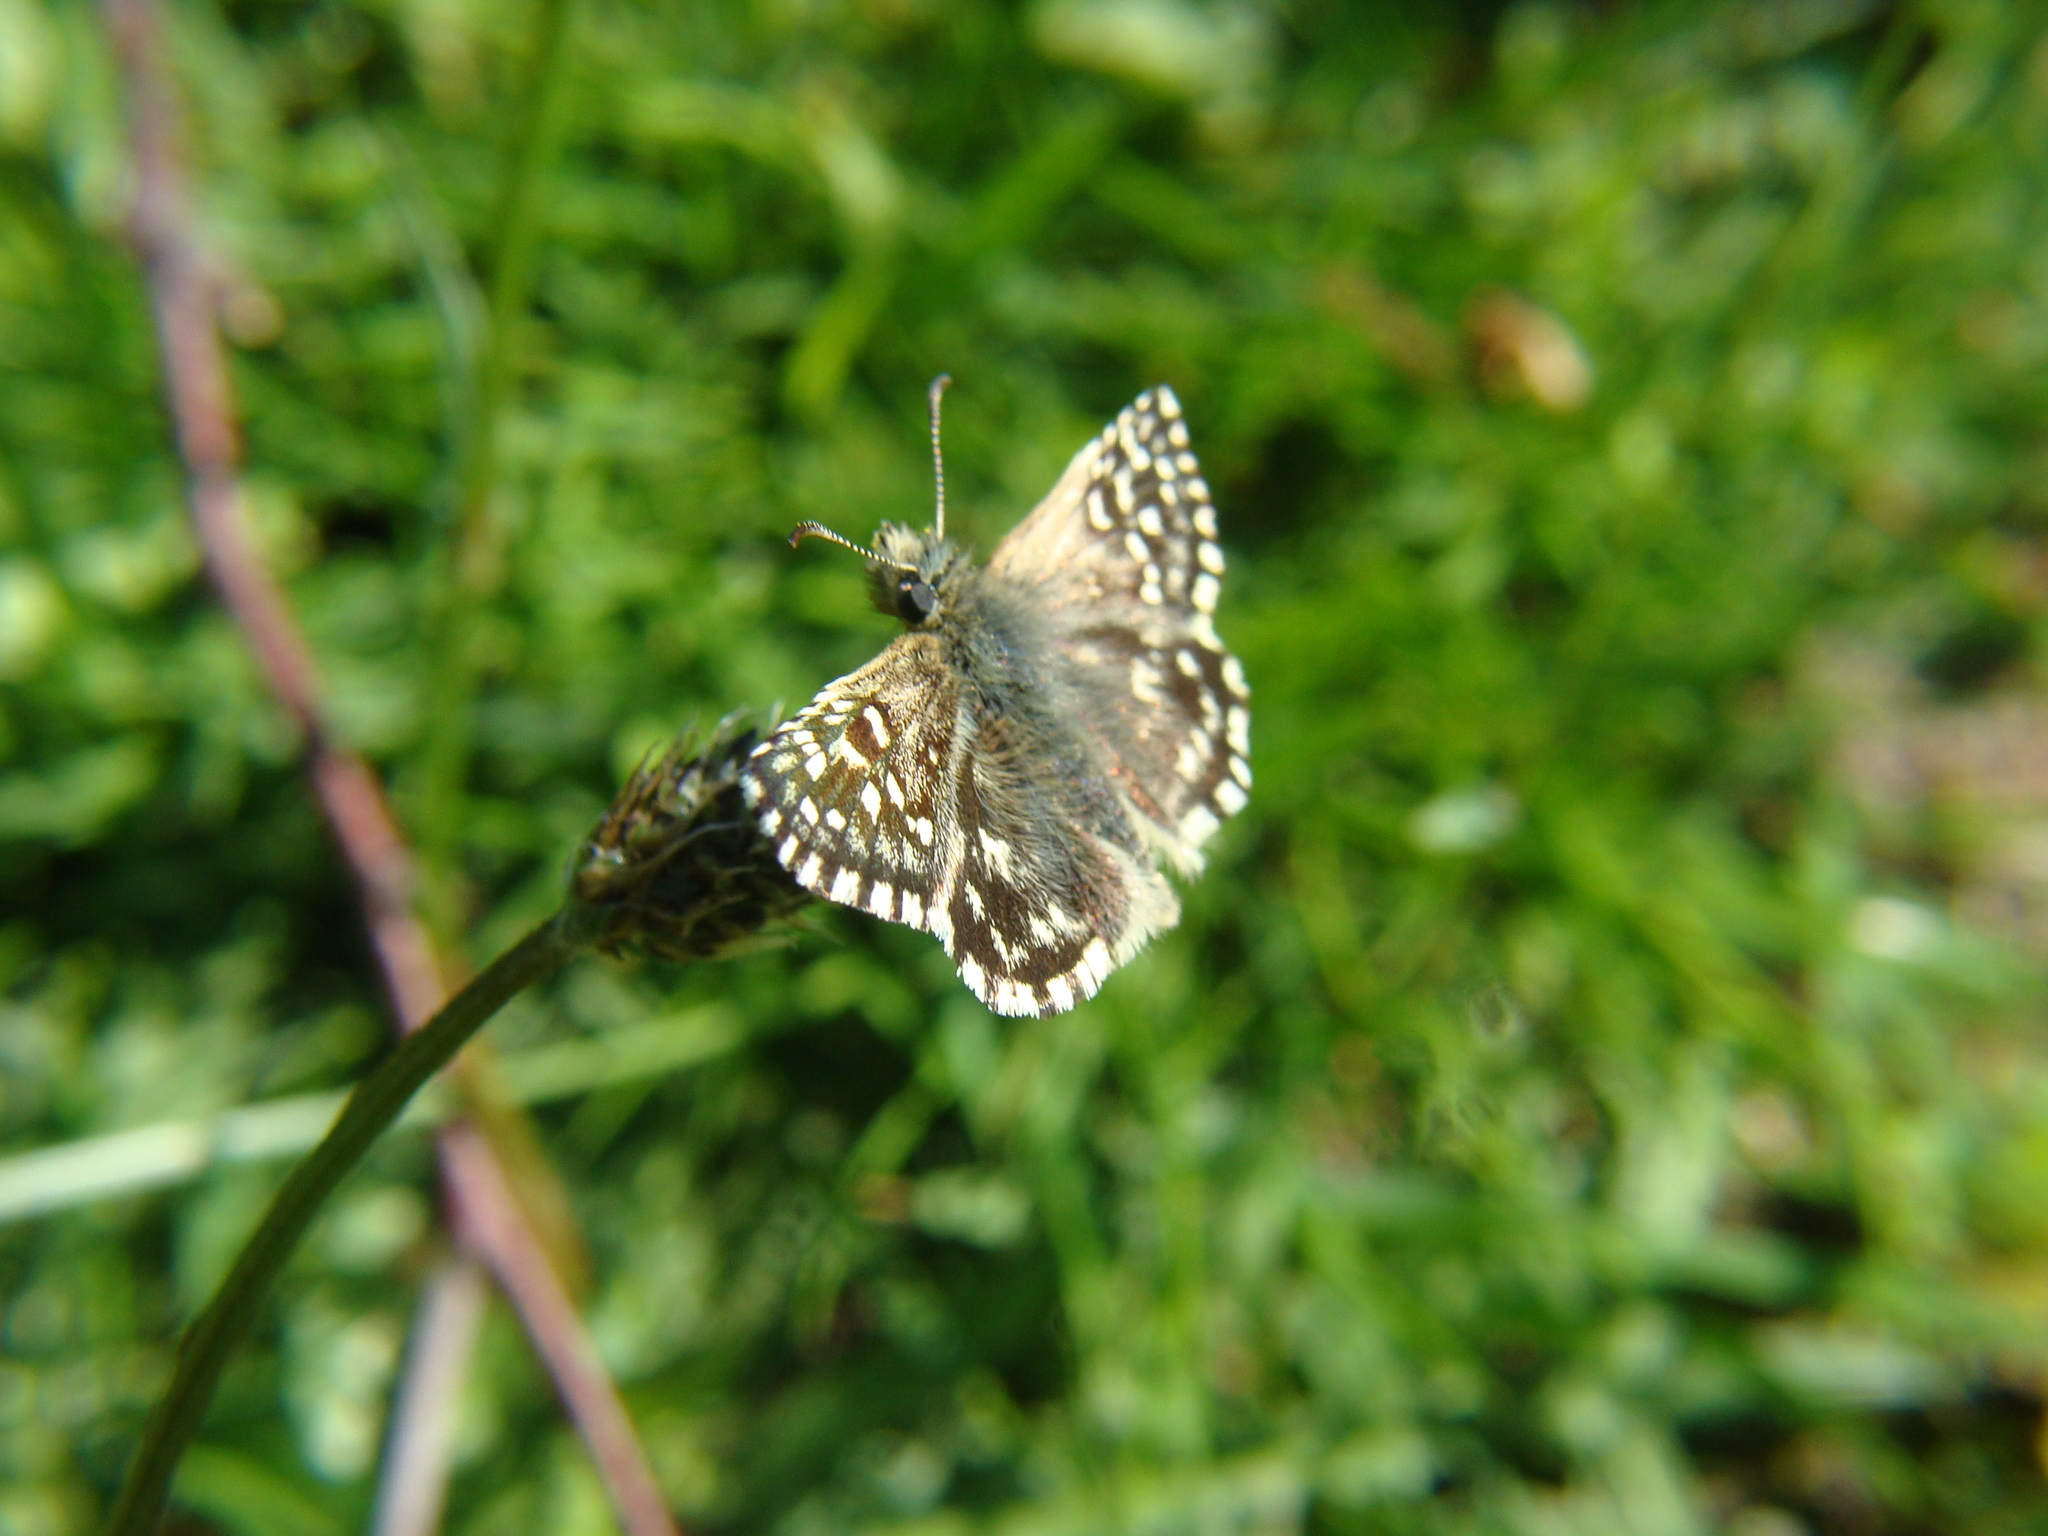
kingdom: Animalia
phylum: Arthropoda
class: Insecta
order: Lepidoptera
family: Hesperiidae
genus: Pyrgus
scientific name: Pyrgus malvae
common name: Grizzled skipper
